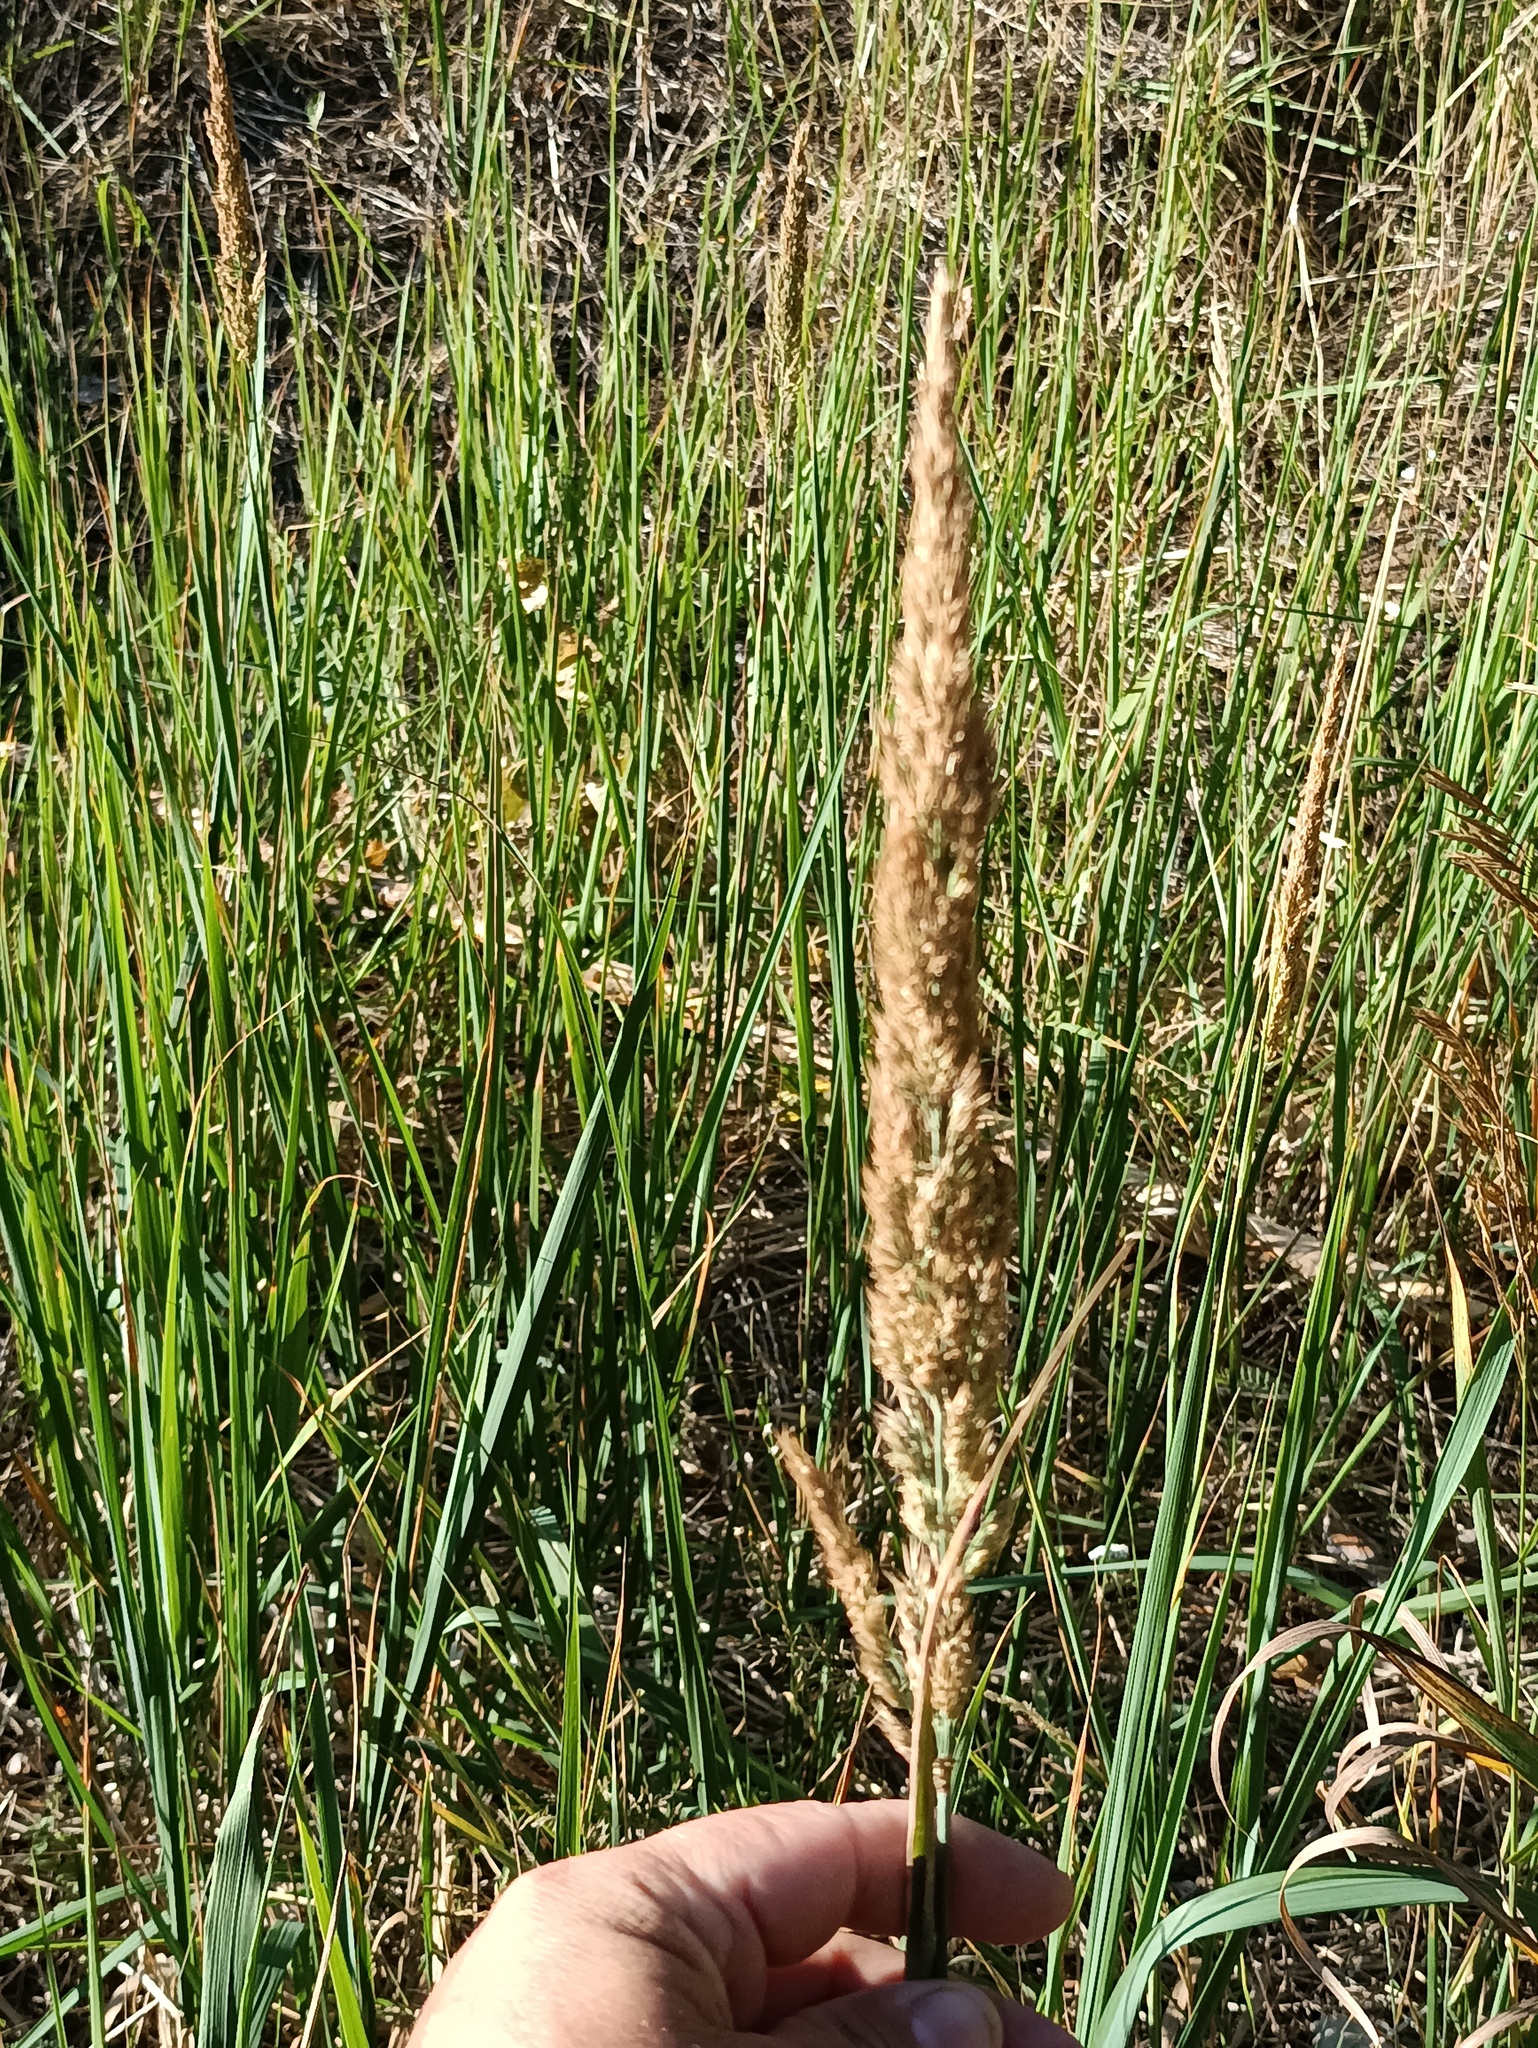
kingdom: Plantae
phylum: Tracheophyta
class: Liliopsida
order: Poales
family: Poaceae
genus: Calamagrostis
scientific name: Calamagrostis epigejos
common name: Wood small-reed
